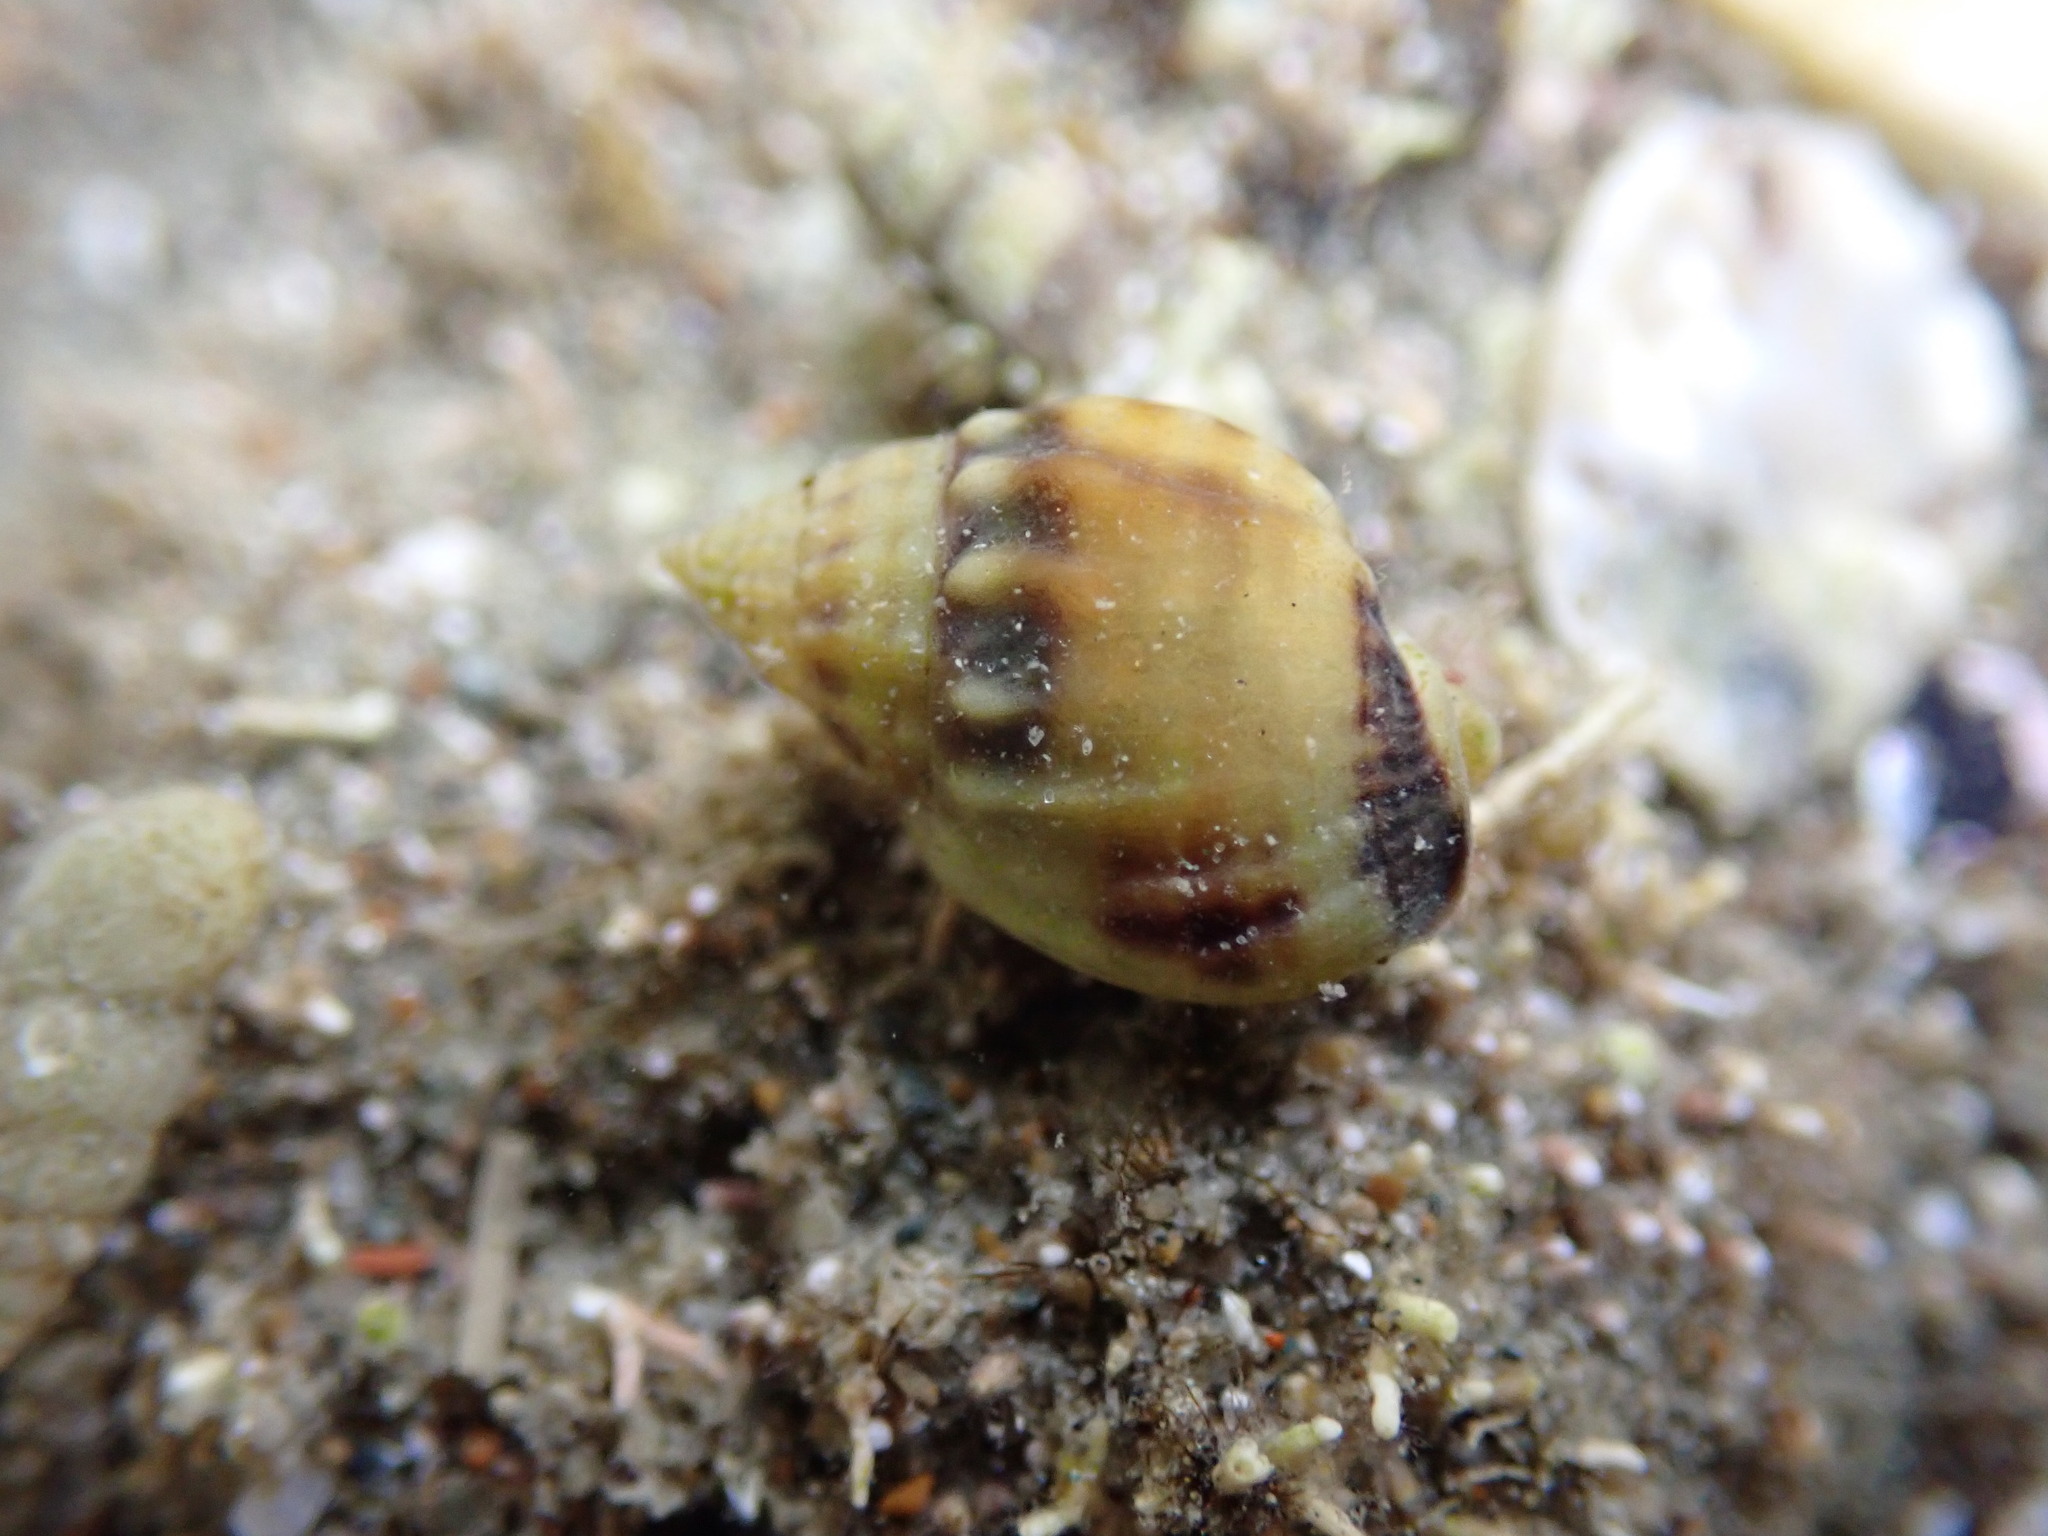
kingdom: Animalia
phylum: Mollusca
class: Gastropoda
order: Neogastropoda
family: Nassariidae
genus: Tritia
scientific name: Tritia burchardi
